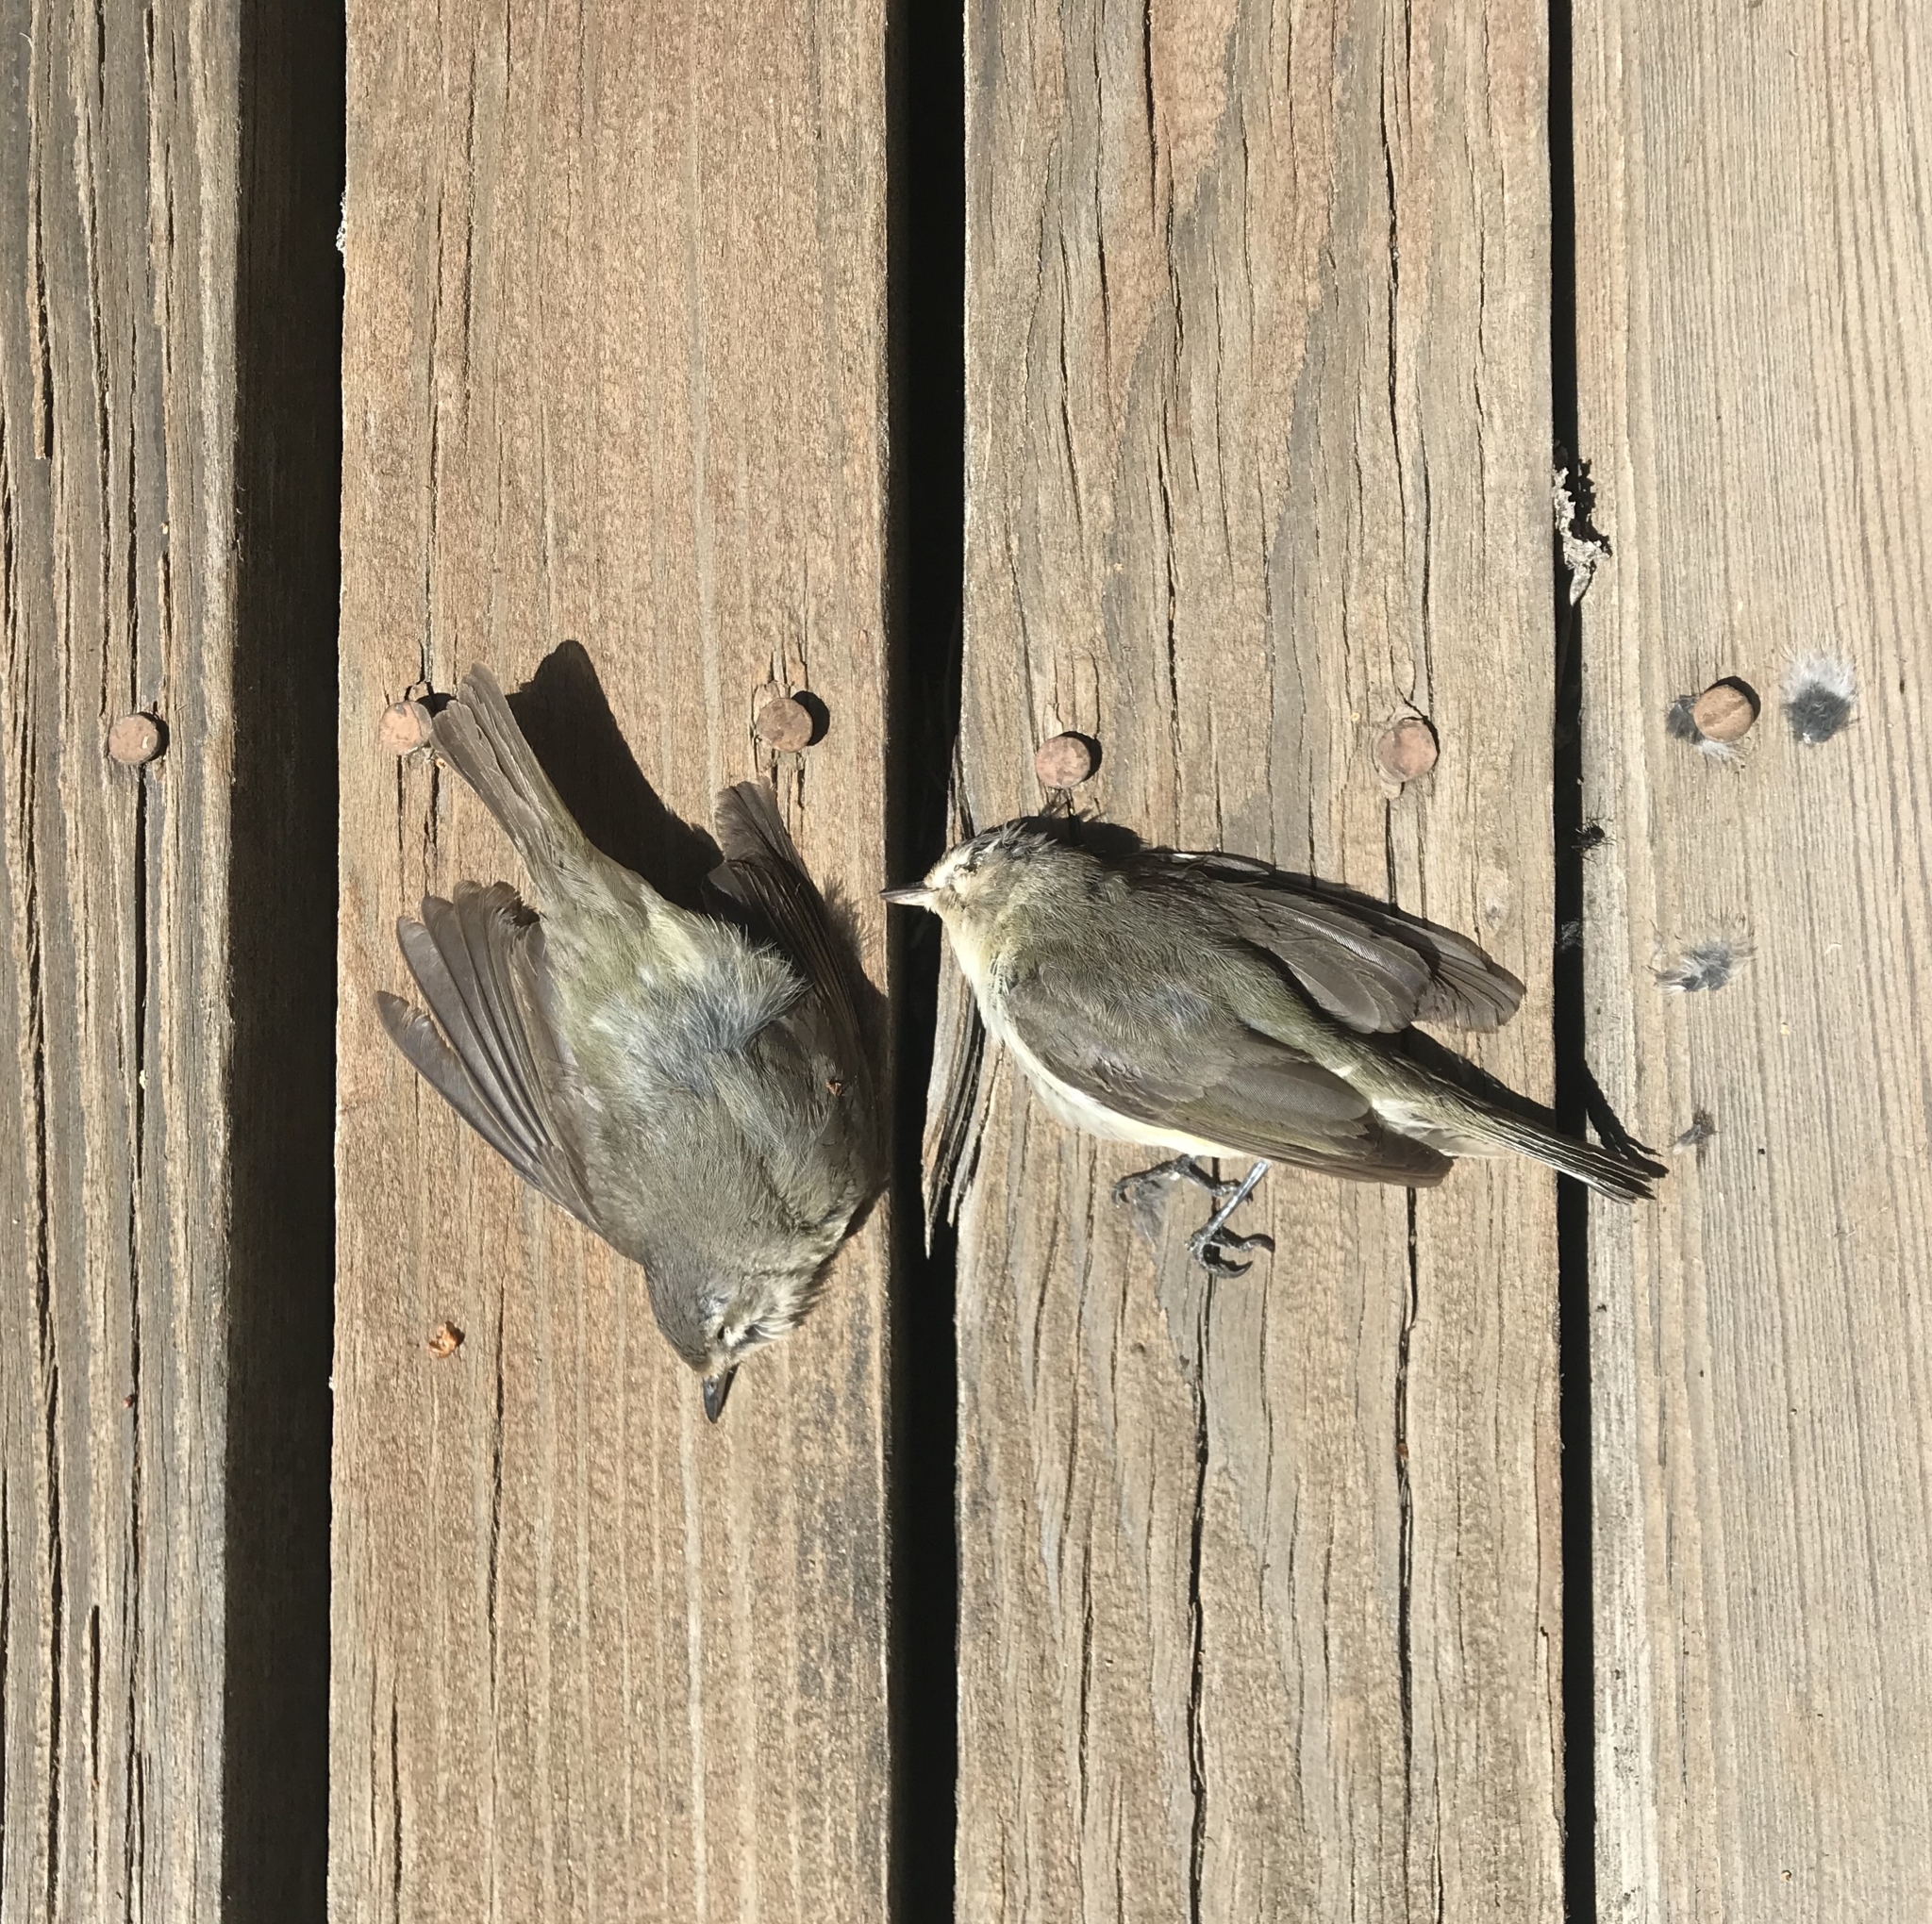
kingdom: Animalia
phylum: Chordata
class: Aves
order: Passeriformes
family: Vireonidae
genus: Vireo
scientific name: Vireo gilvus
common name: Warbling vireo
